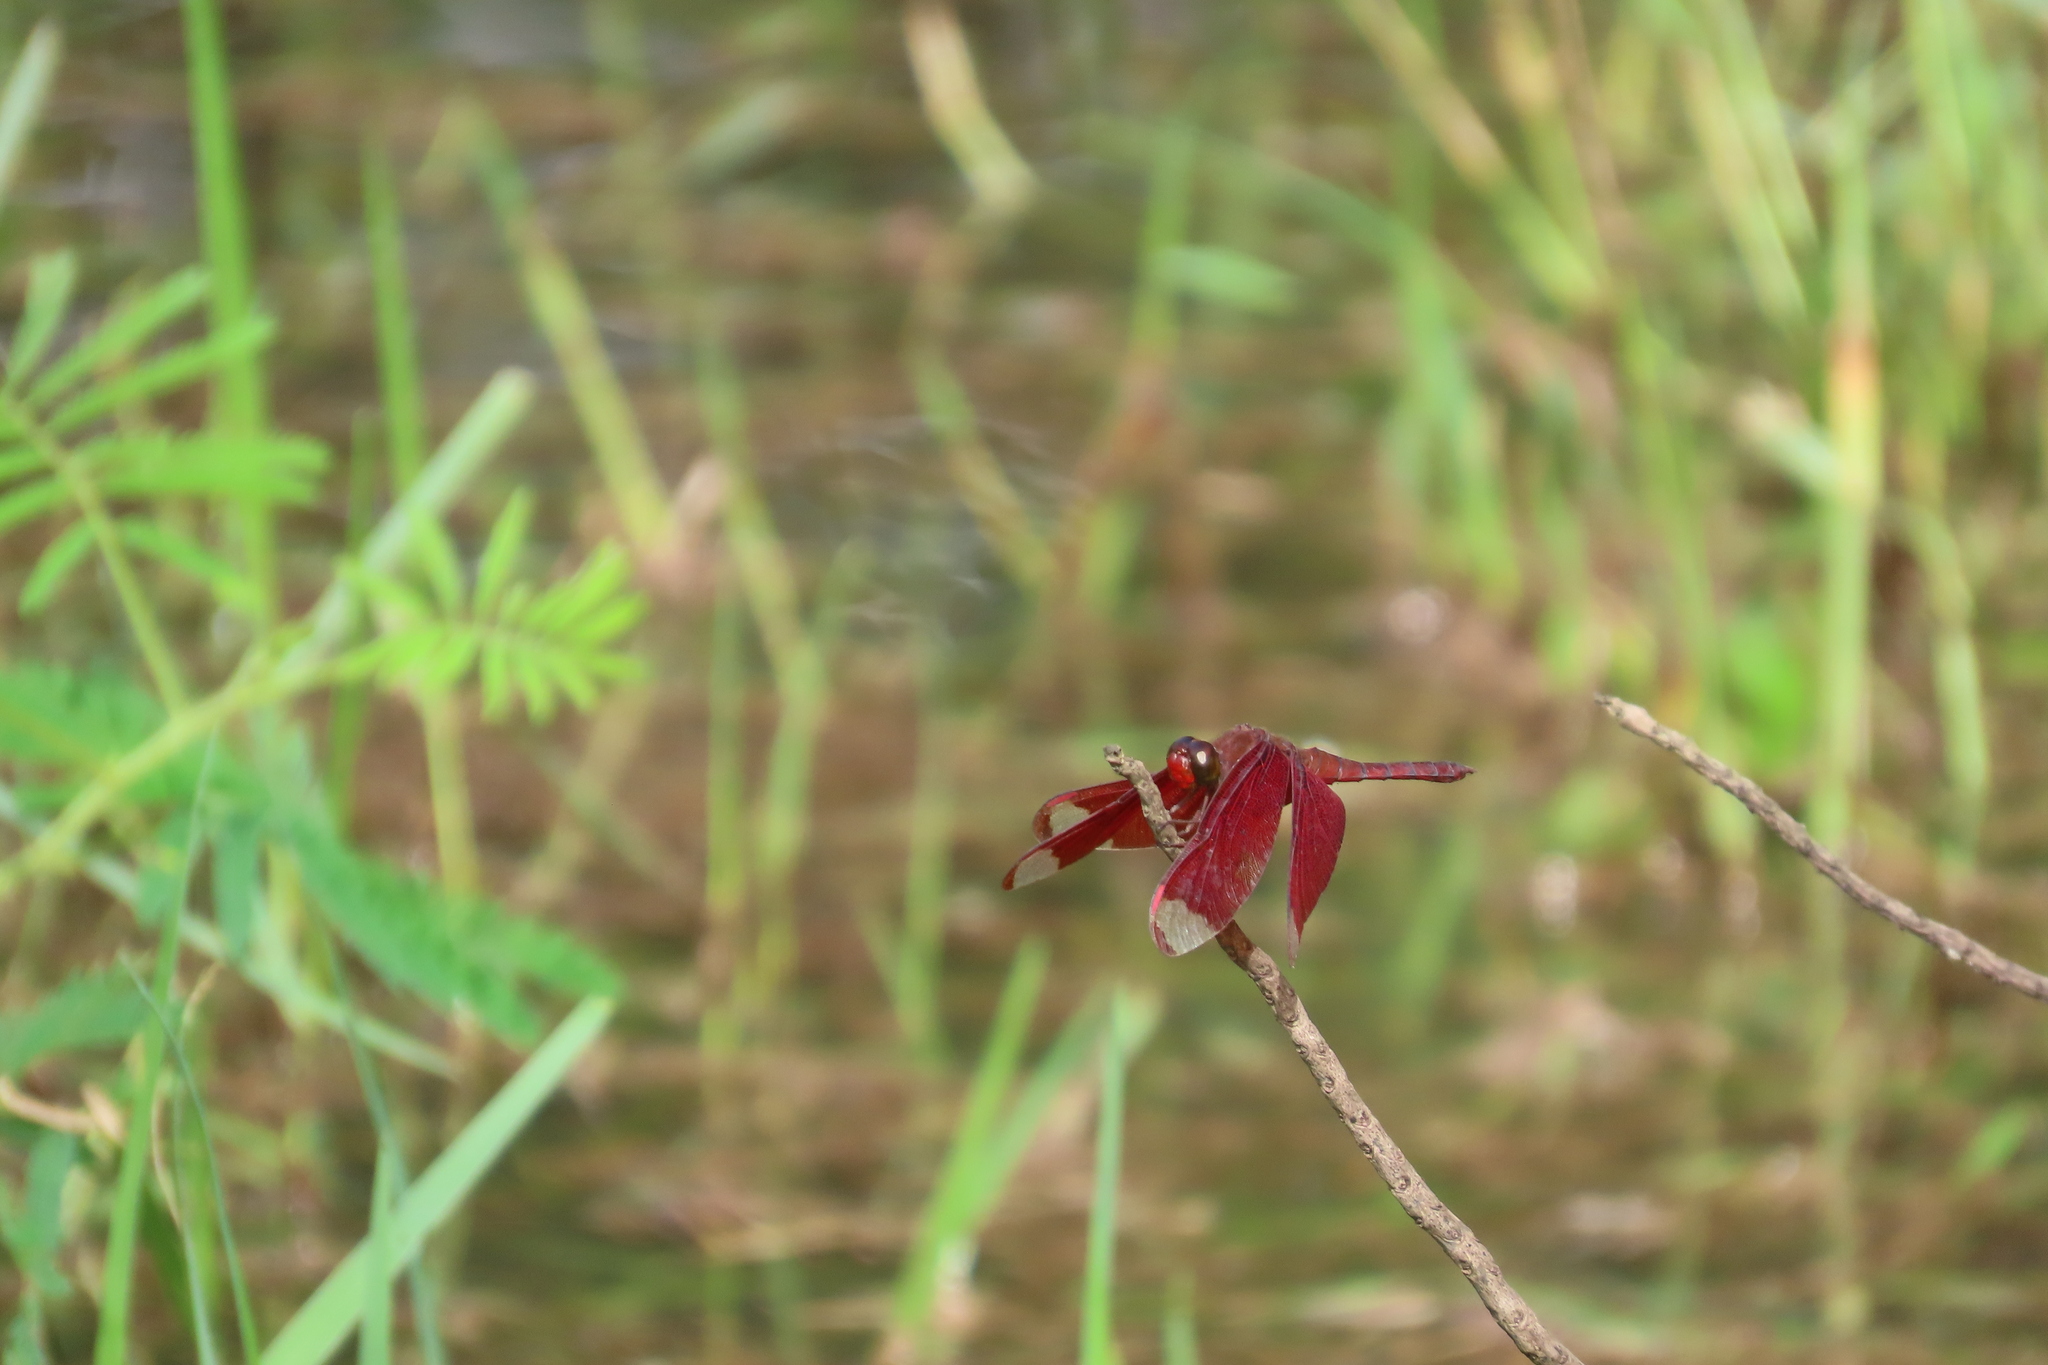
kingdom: Animalia
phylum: Arthropoda
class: Insecta
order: Odonata
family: Libellulidae
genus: Neurothemis
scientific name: Neurothemis fulvia
